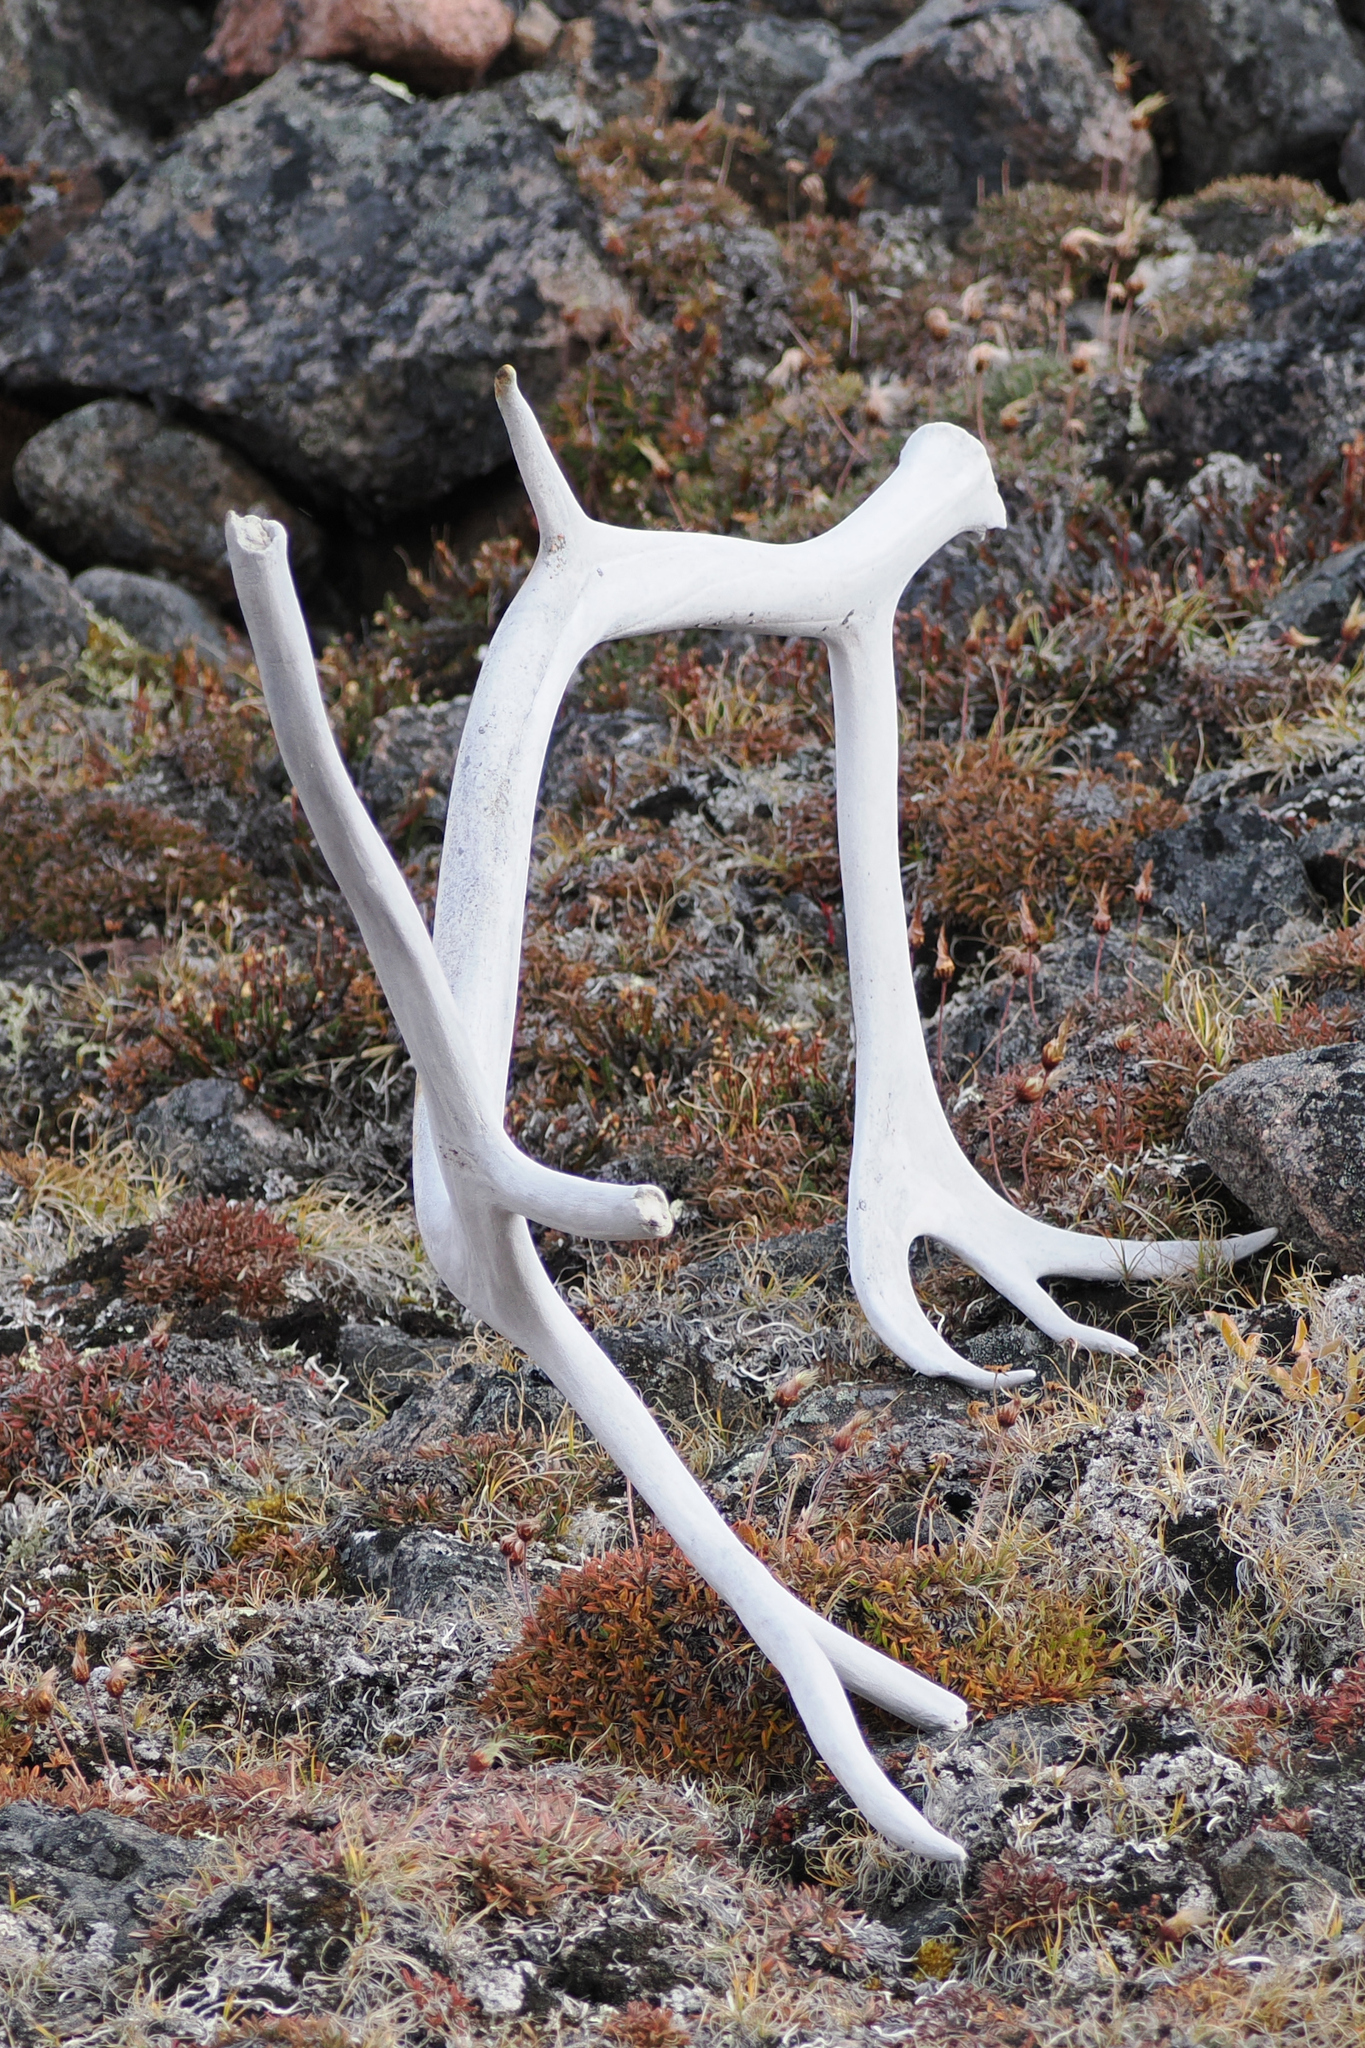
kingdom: Animalia
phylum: Chordata
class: Mammalia
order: Artiodactyla
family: Cervidae
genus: Rangifer
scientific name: Rangifer tarandus
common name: Reindeer
